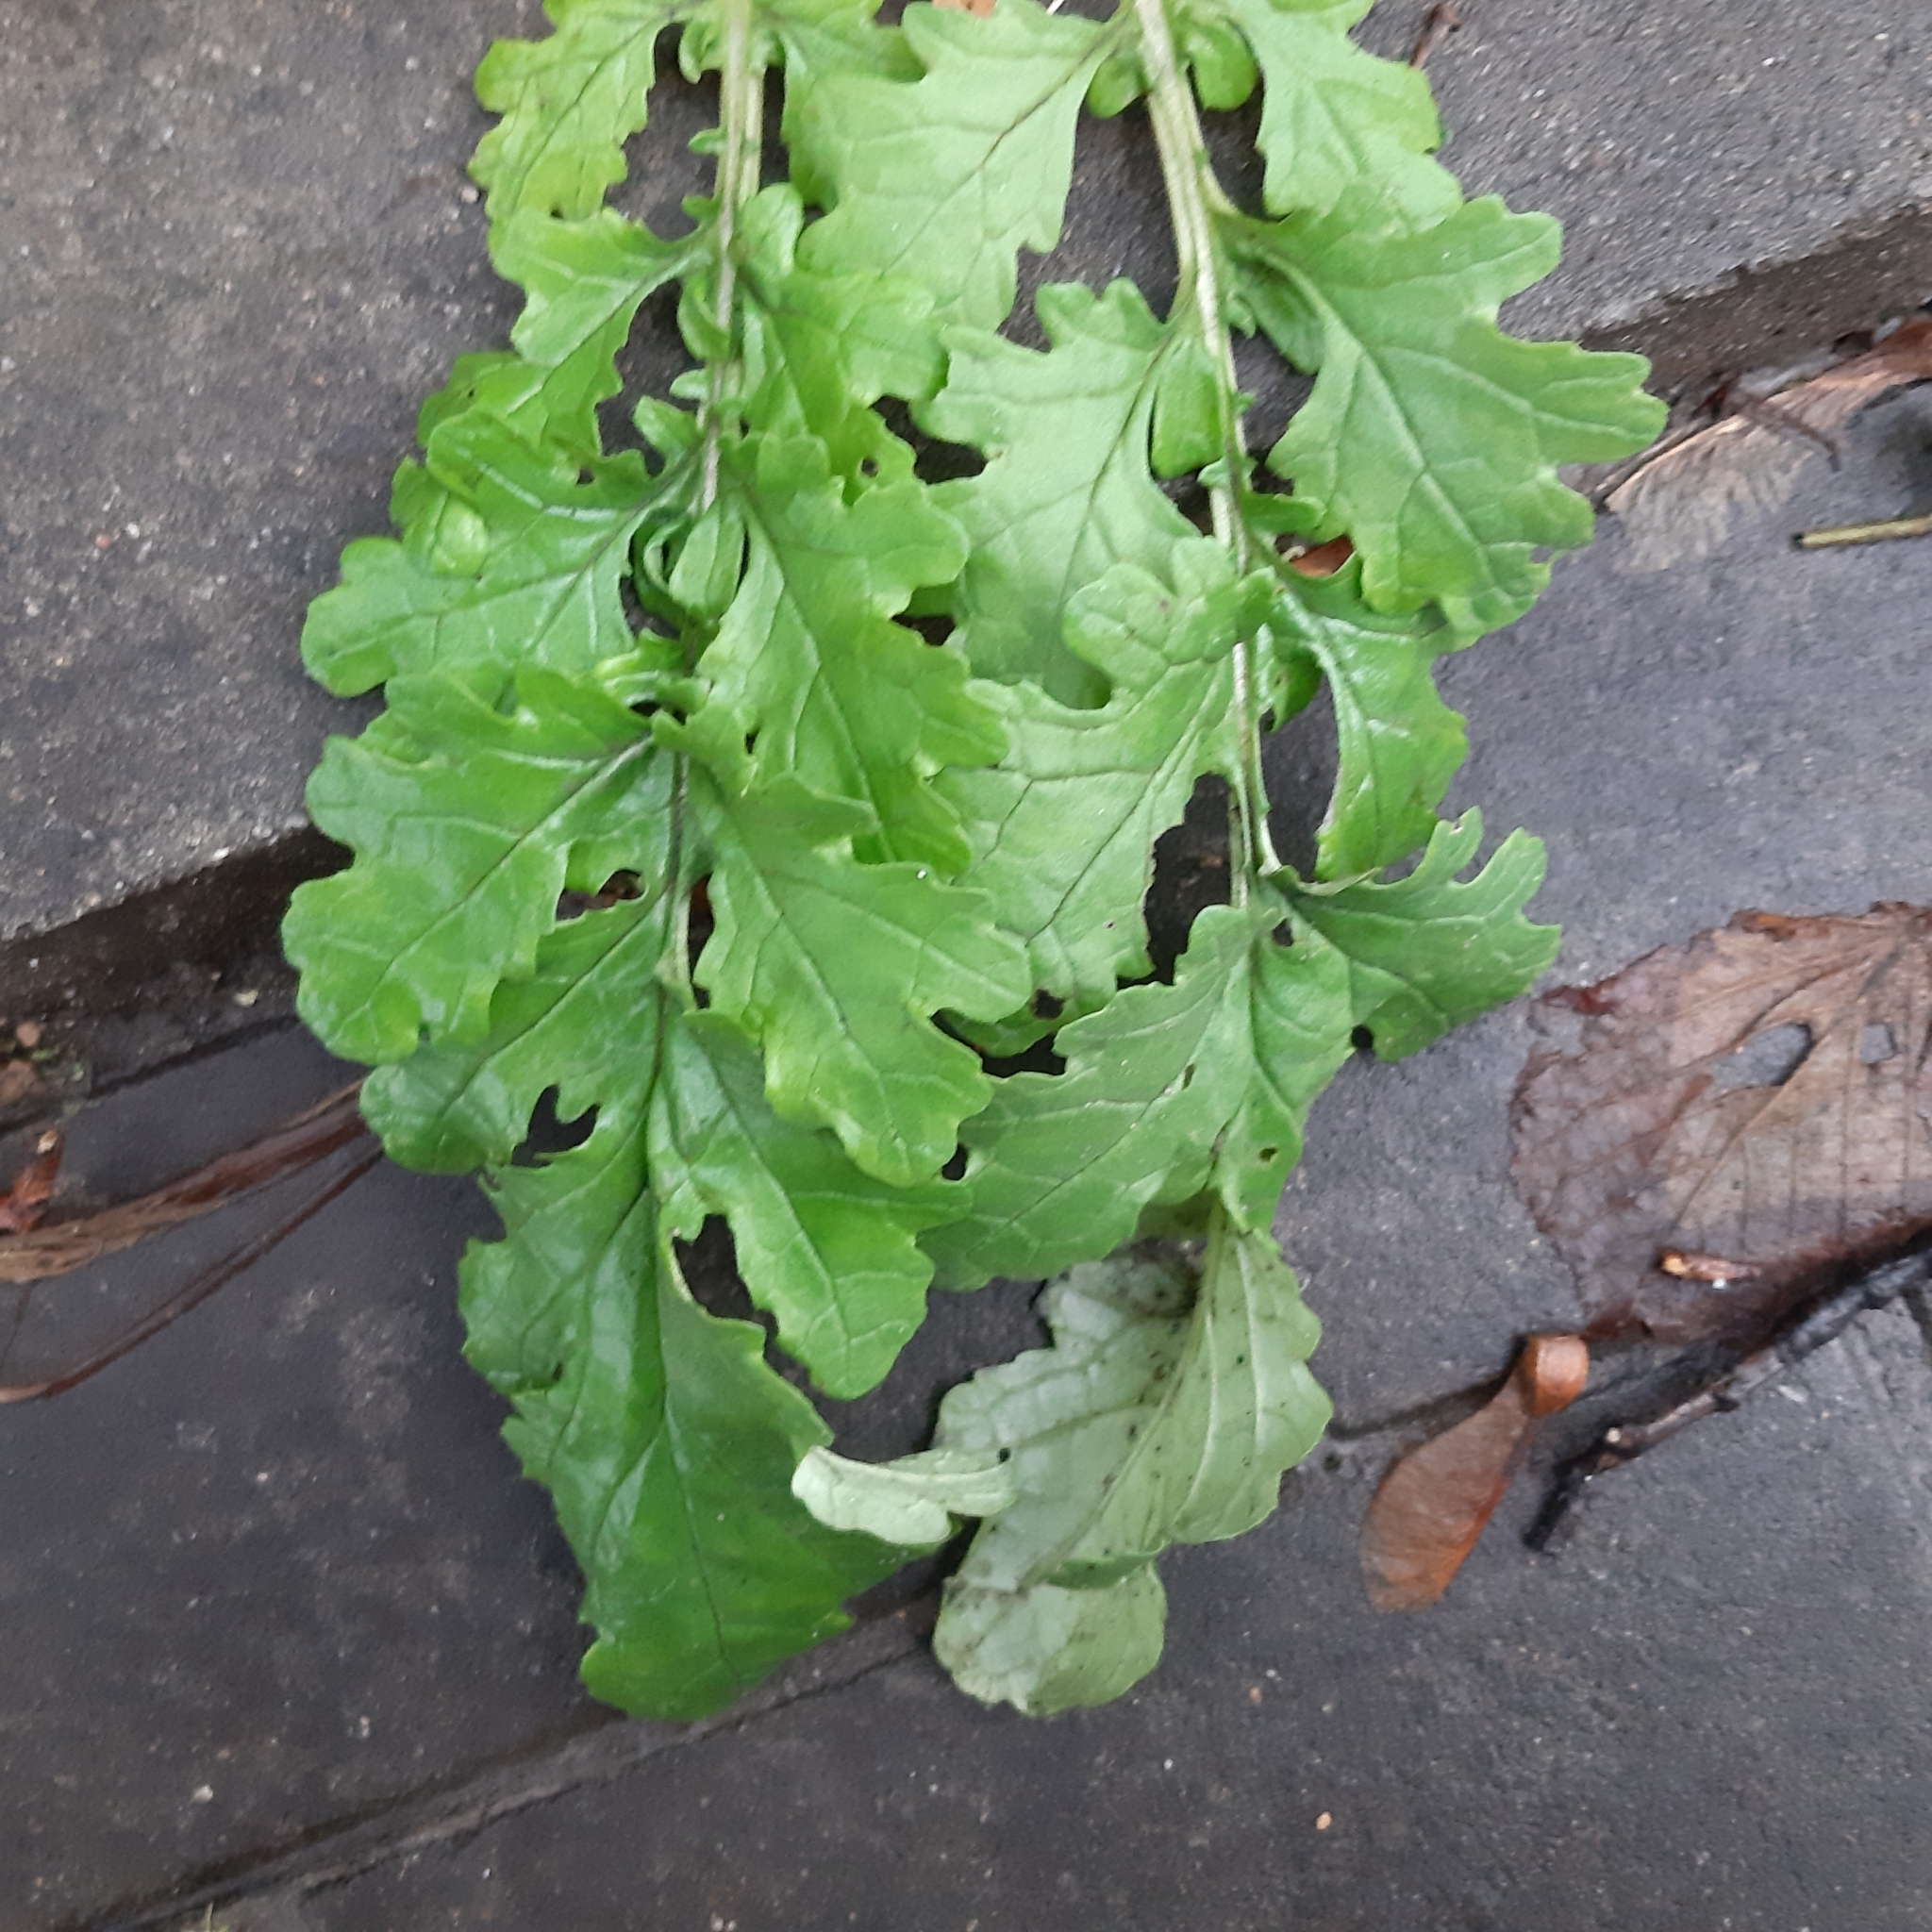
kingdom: Plantae
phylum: Tracheophyta
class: Magnoliopsida
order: Asterales
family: Asteraceae
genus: Jacobaea
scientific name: Jacobaea vulgaris
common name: Stinking willie
